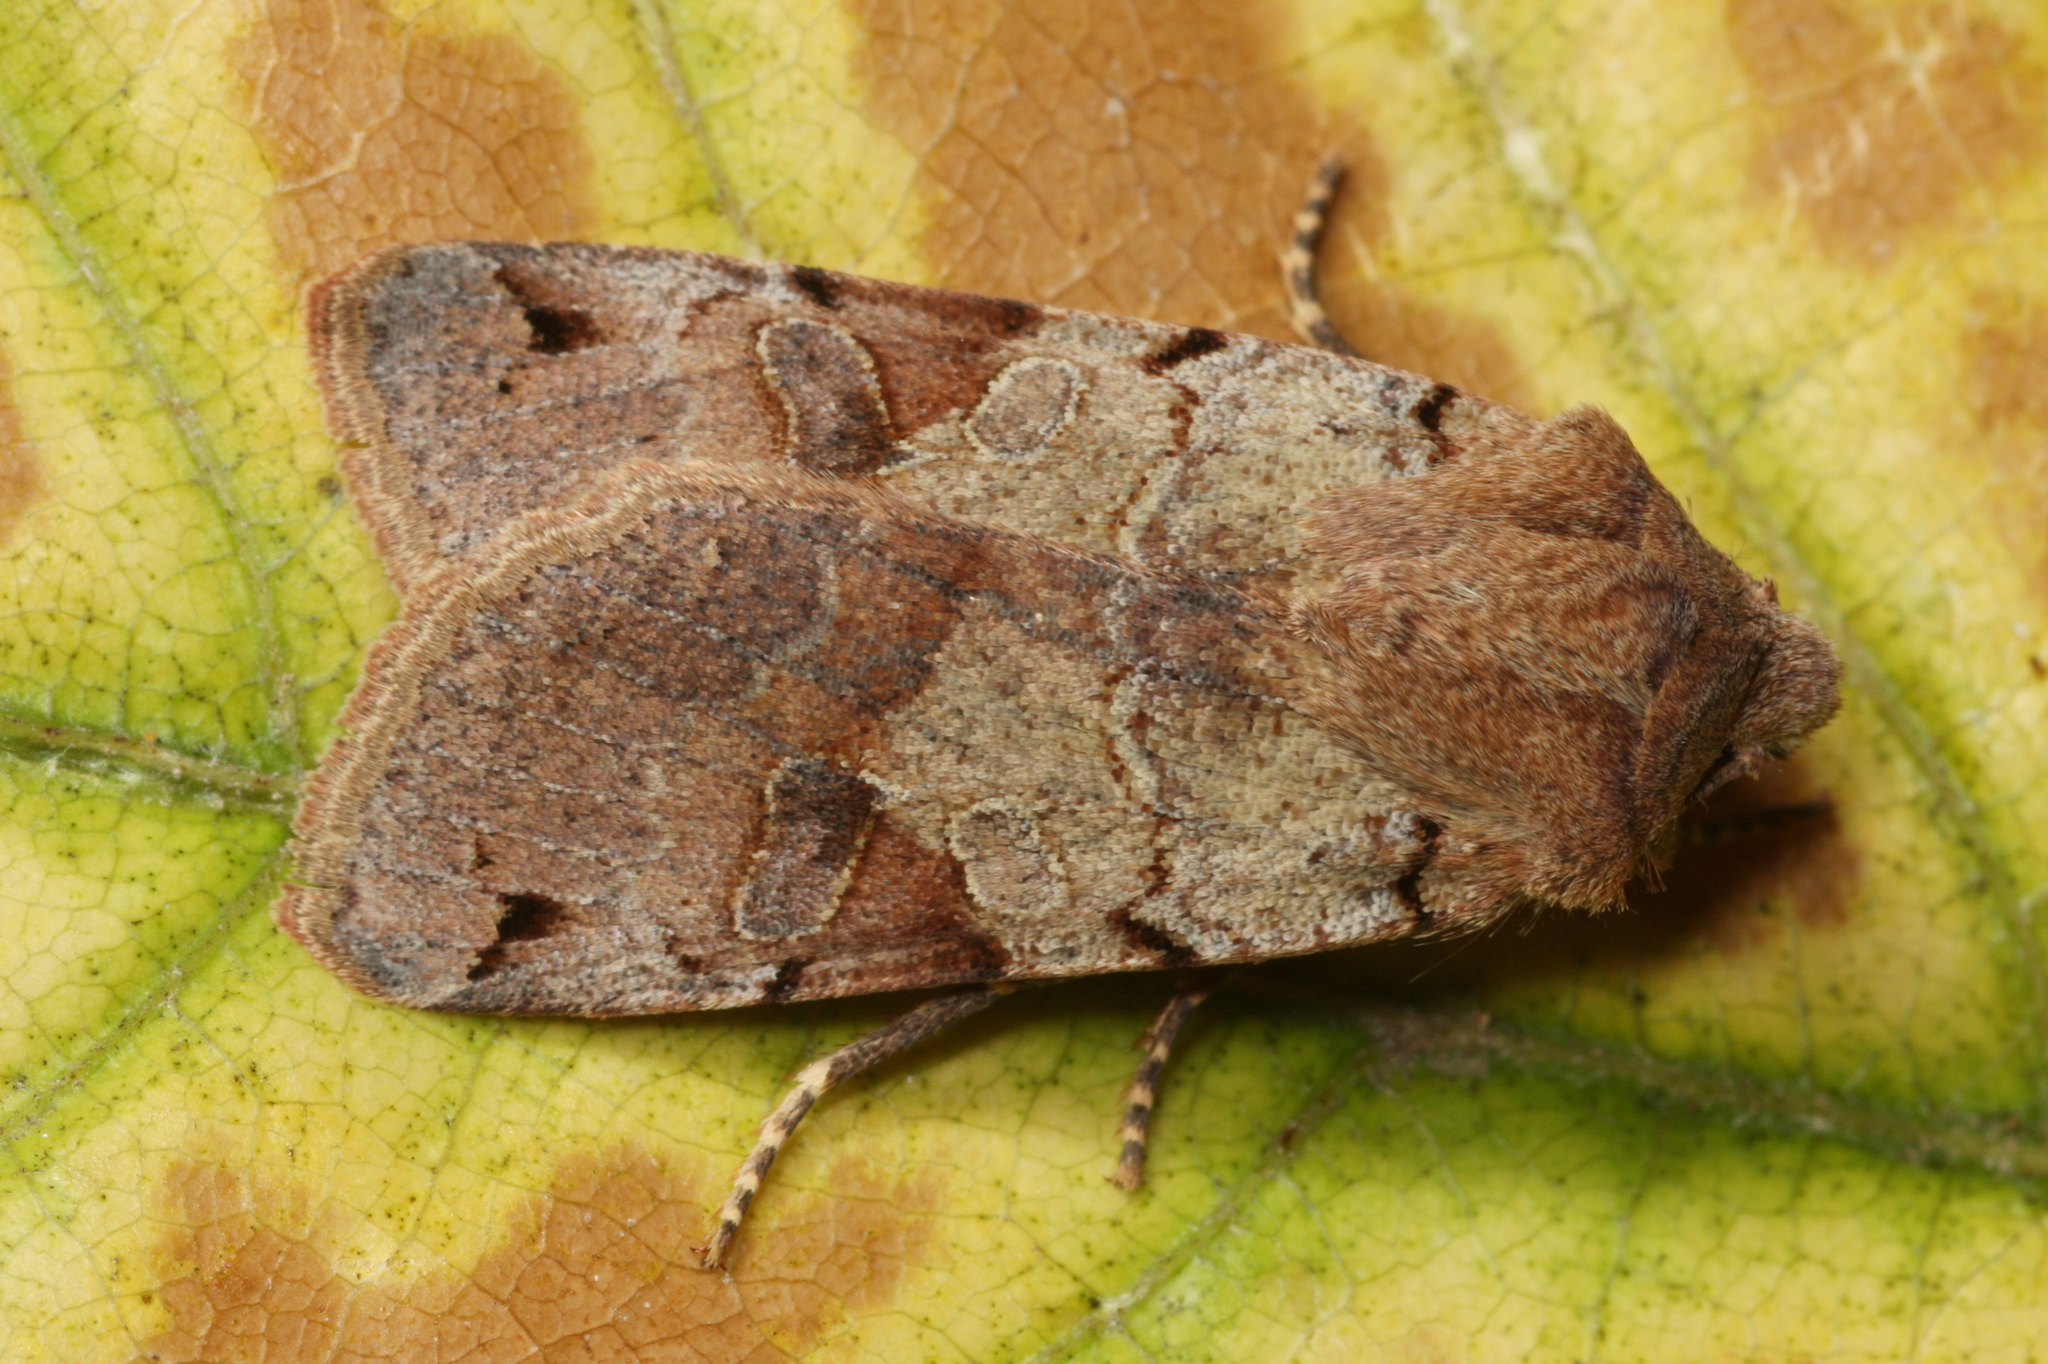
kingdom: Animalia
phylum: Arthropoda
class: Insecta
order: Lepidoptera
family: Noctuidae
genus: Agrochola
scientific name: Agrochola litura
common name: Brown-spot pinion
